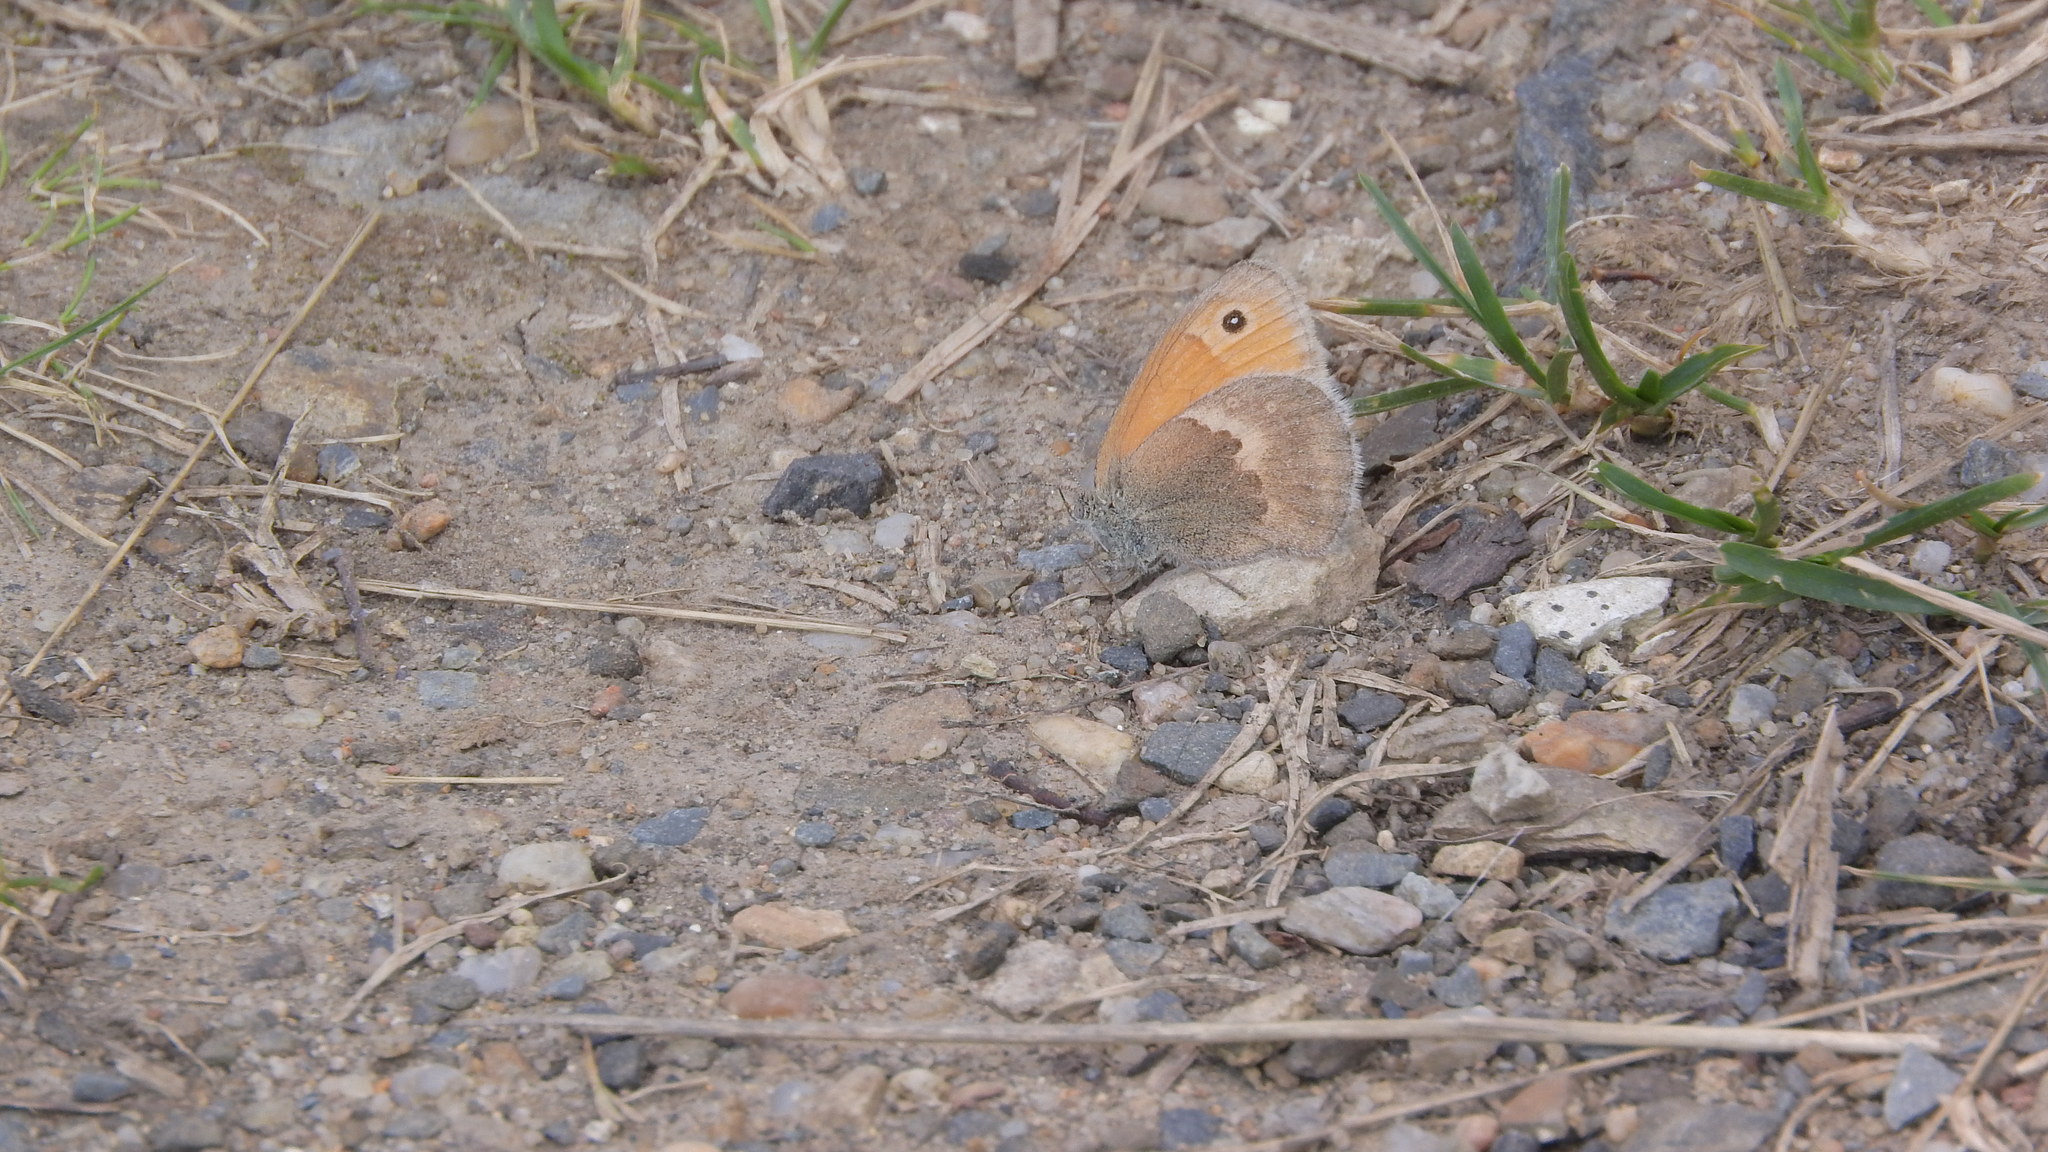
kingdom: Animalia
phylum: Arthropoda
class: Insecta
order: Lepidoptera
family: Nymphalidae
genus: Coenonympha
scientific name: Coenonympha pamphilus
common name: Small heath
